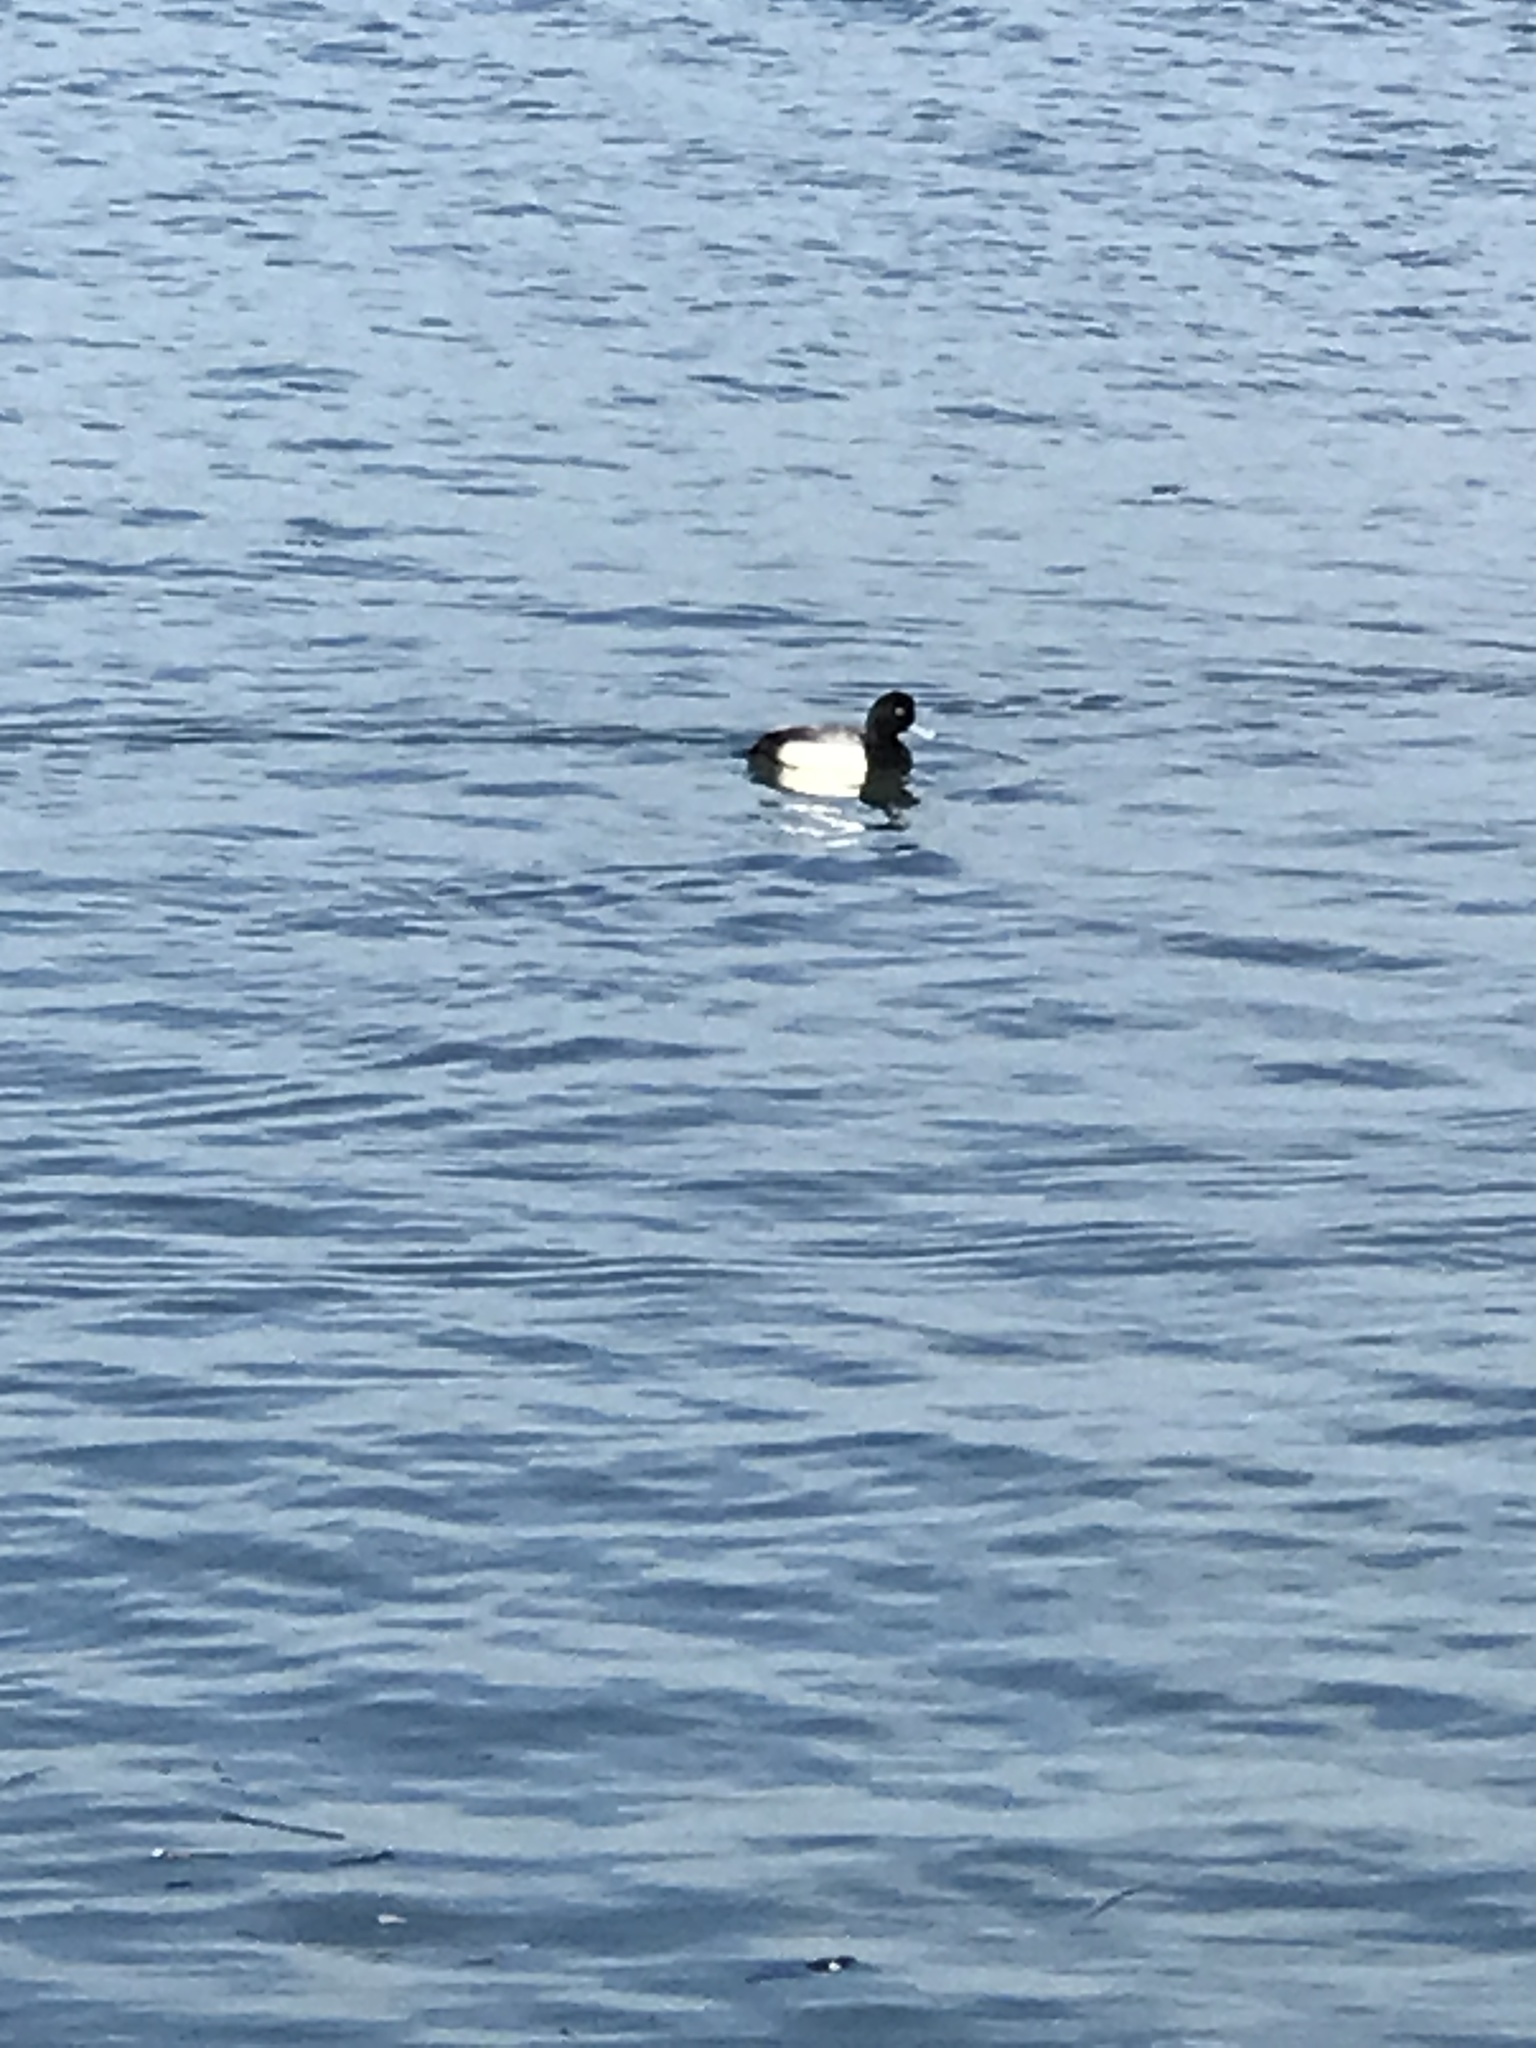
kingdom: Animalia
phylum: Chordata
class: Aves
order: Anseriformes
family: Anatidae
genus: Aythya
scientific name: Aythya marila
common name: Greater scaup
